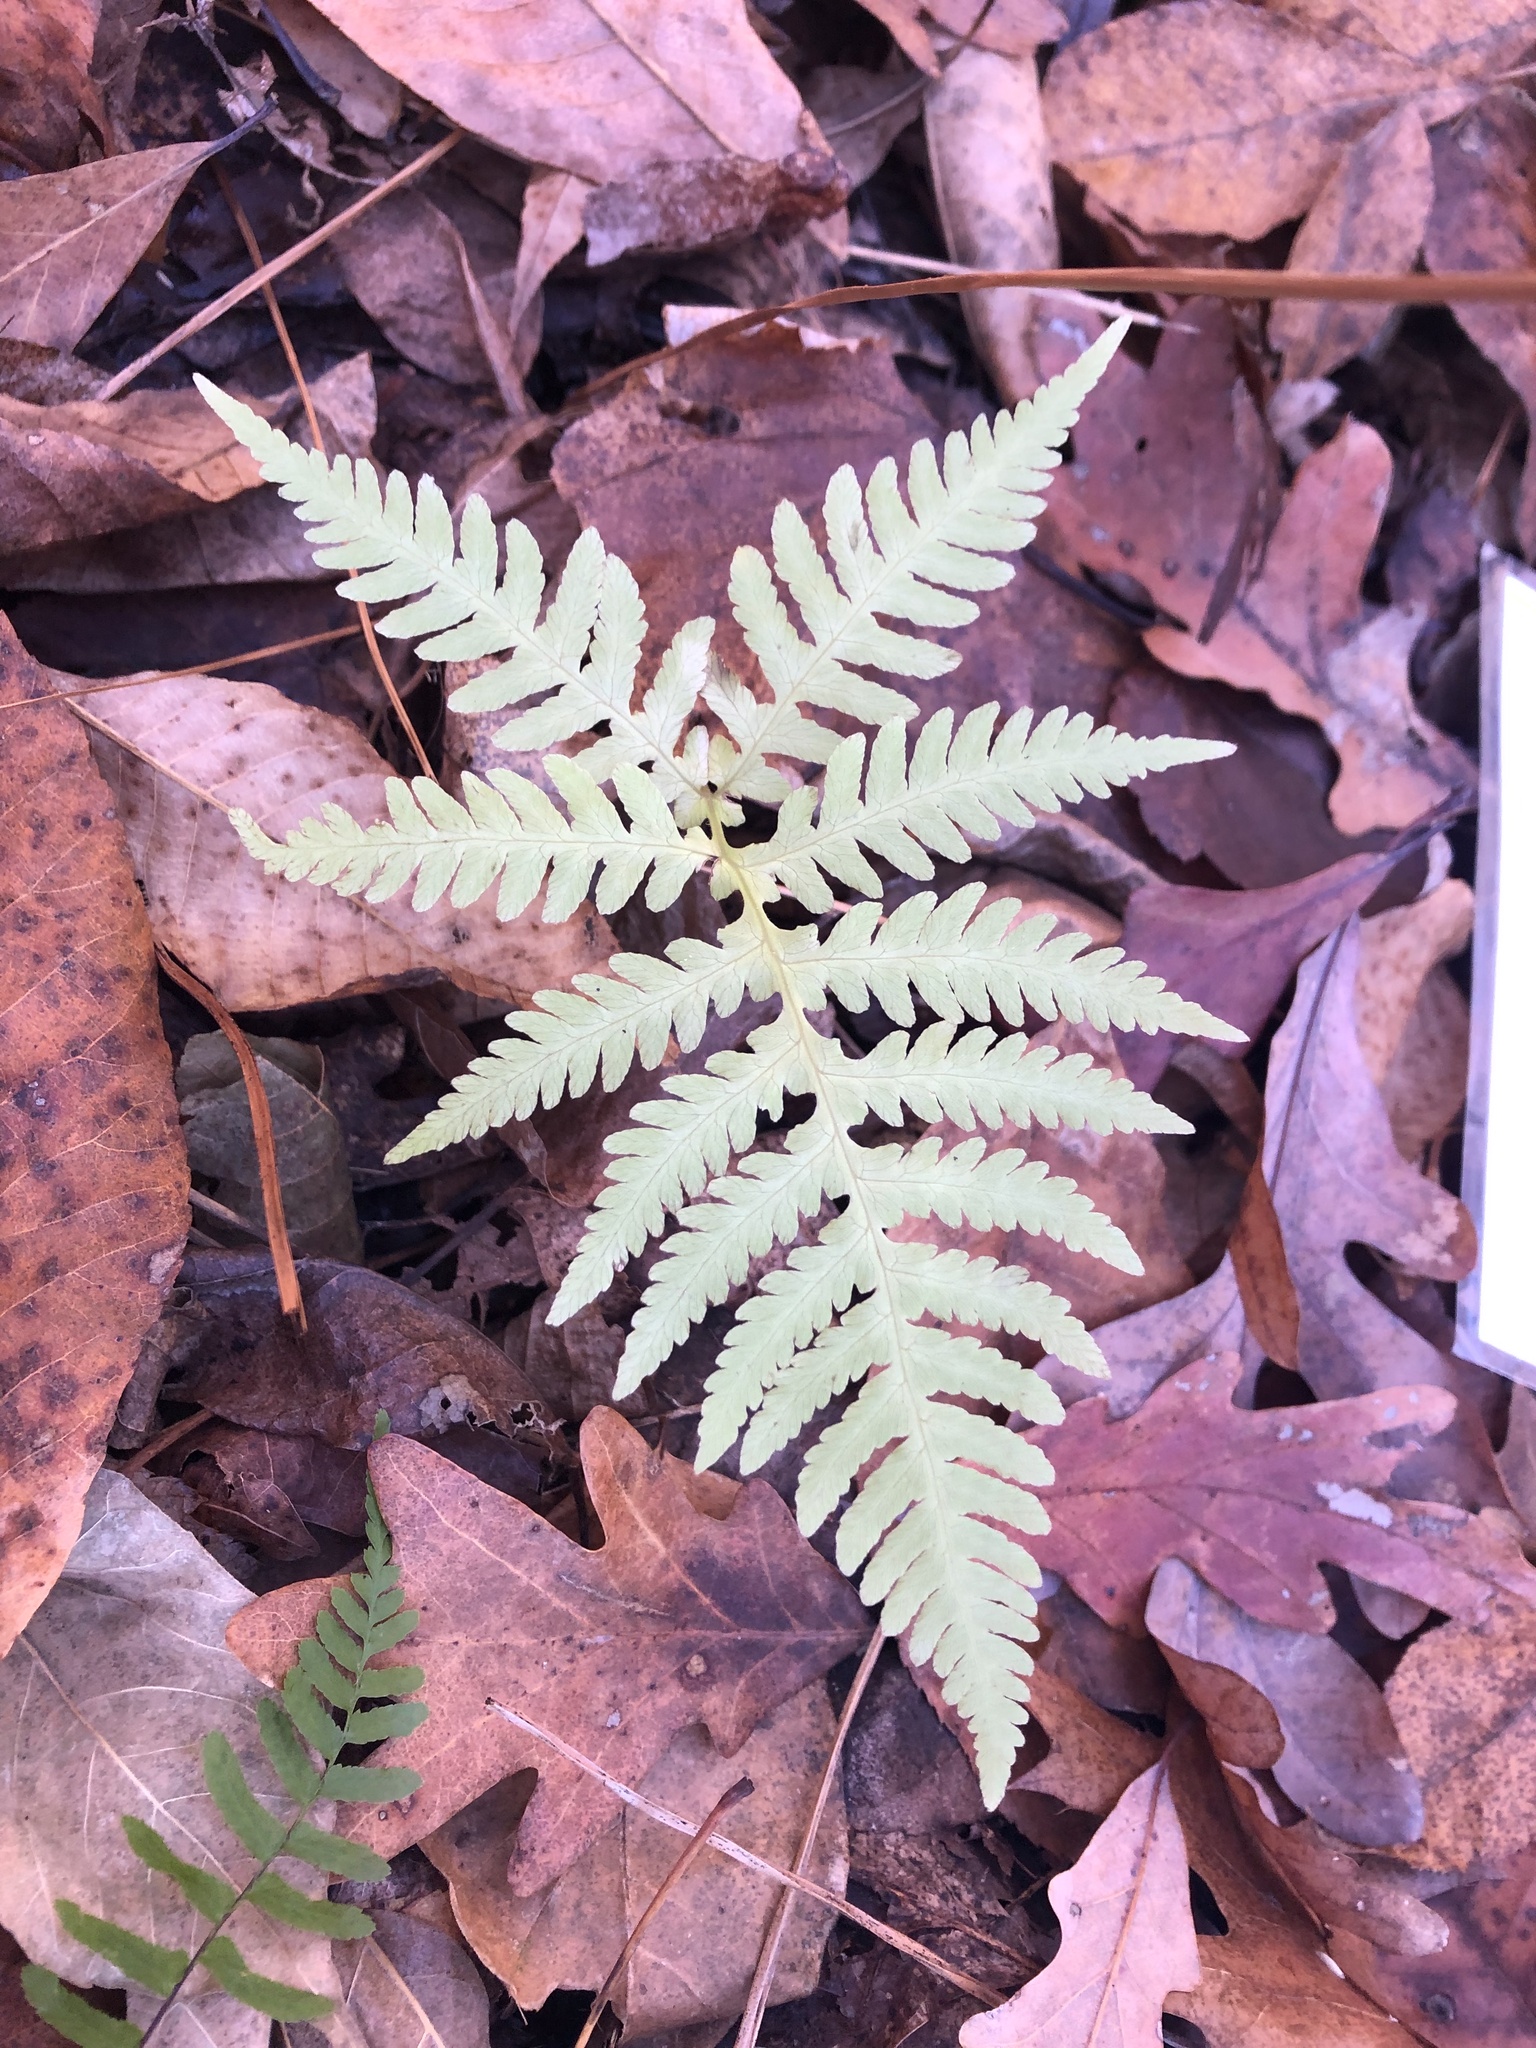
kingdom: Plantae
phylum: Tracheophyta
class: Polypodiopsida
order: Polypodiales
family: Thelypteridaceae
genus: Phegopteris
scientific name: Phegopteris hexagonoptera
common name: Broad beech fern
